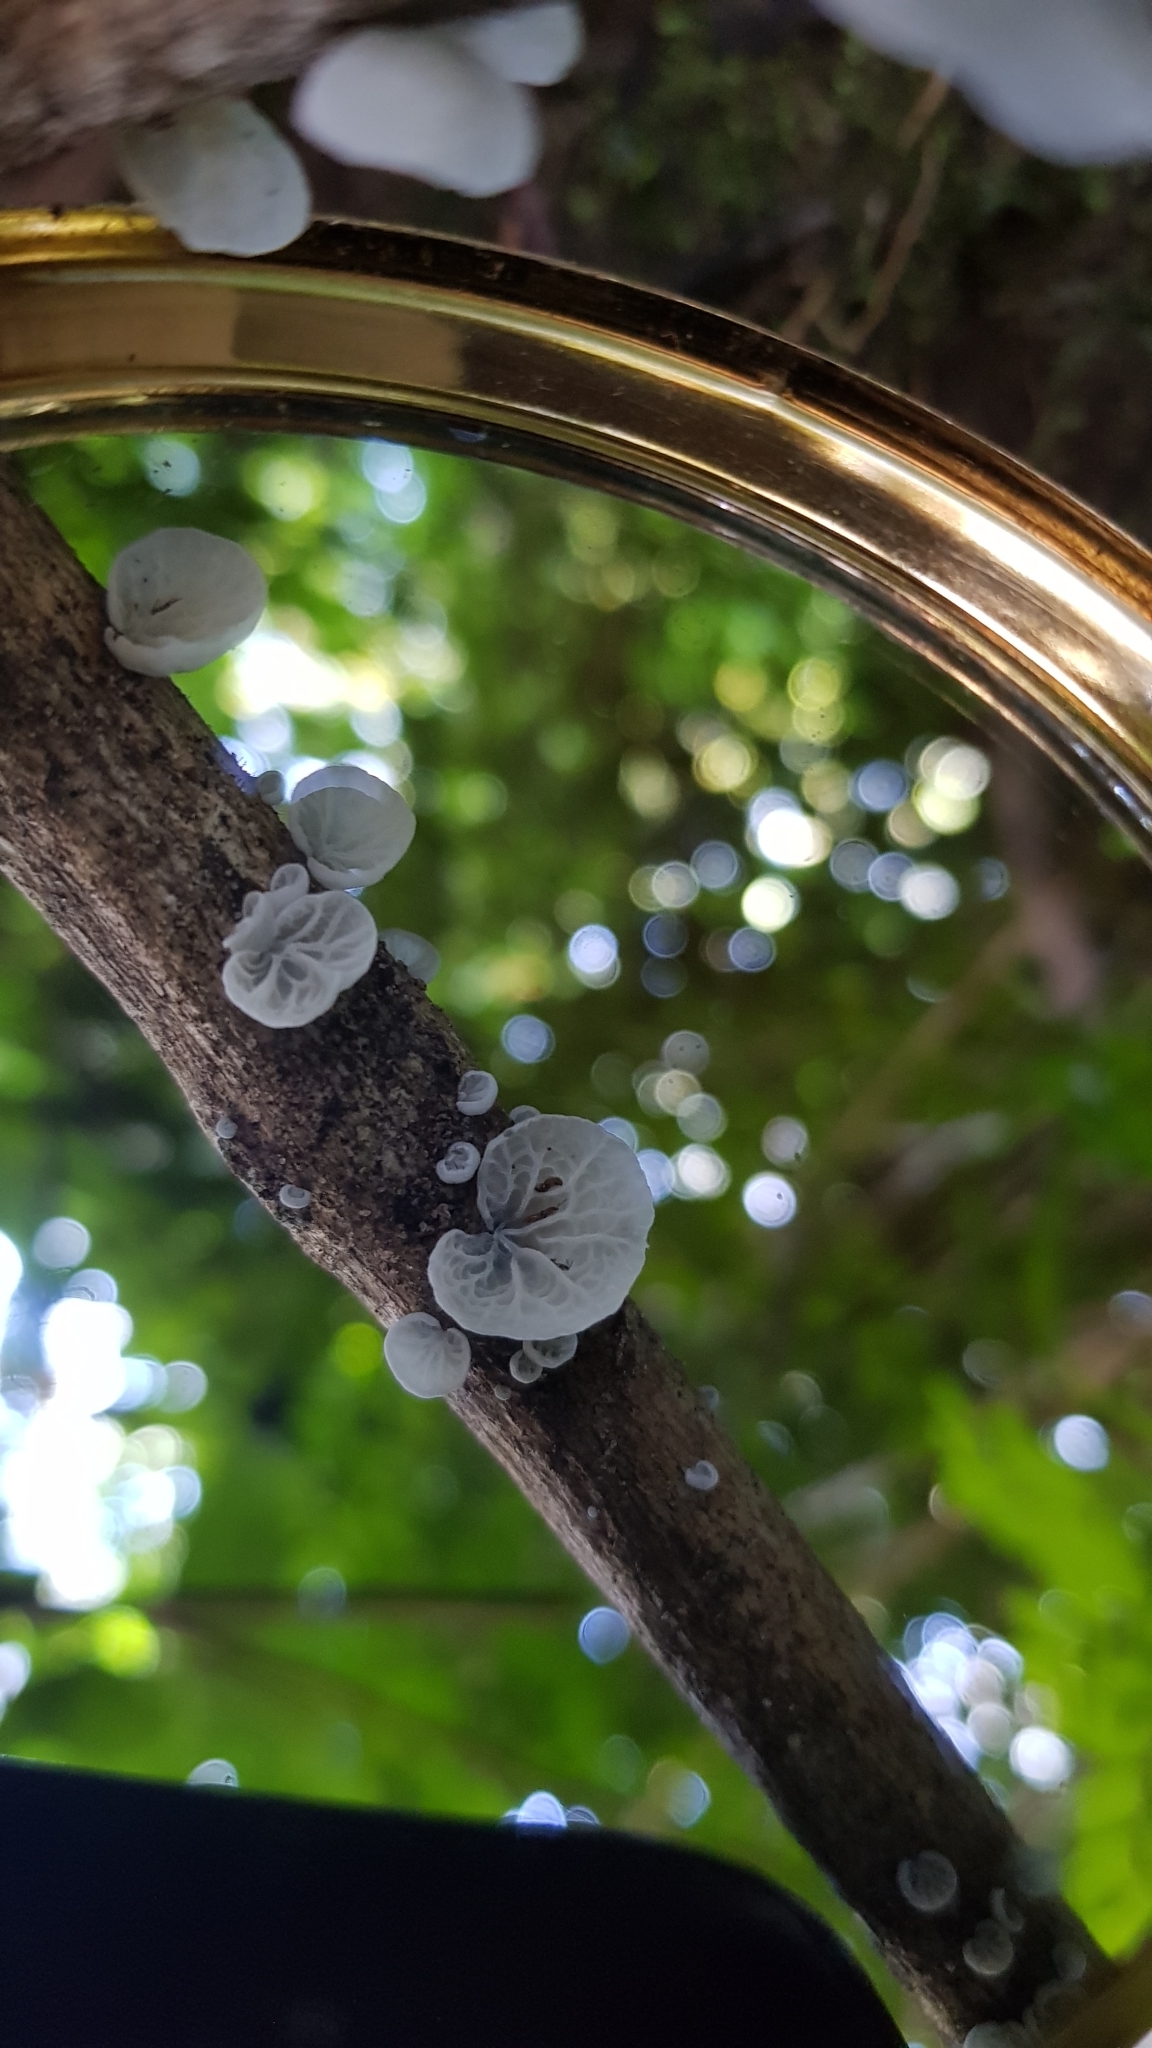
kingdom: Fungi
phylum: Basidiomycota
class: Agaricomycetes
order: Agaricales
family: Marasmiaceae
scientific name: Marasmiaceae
